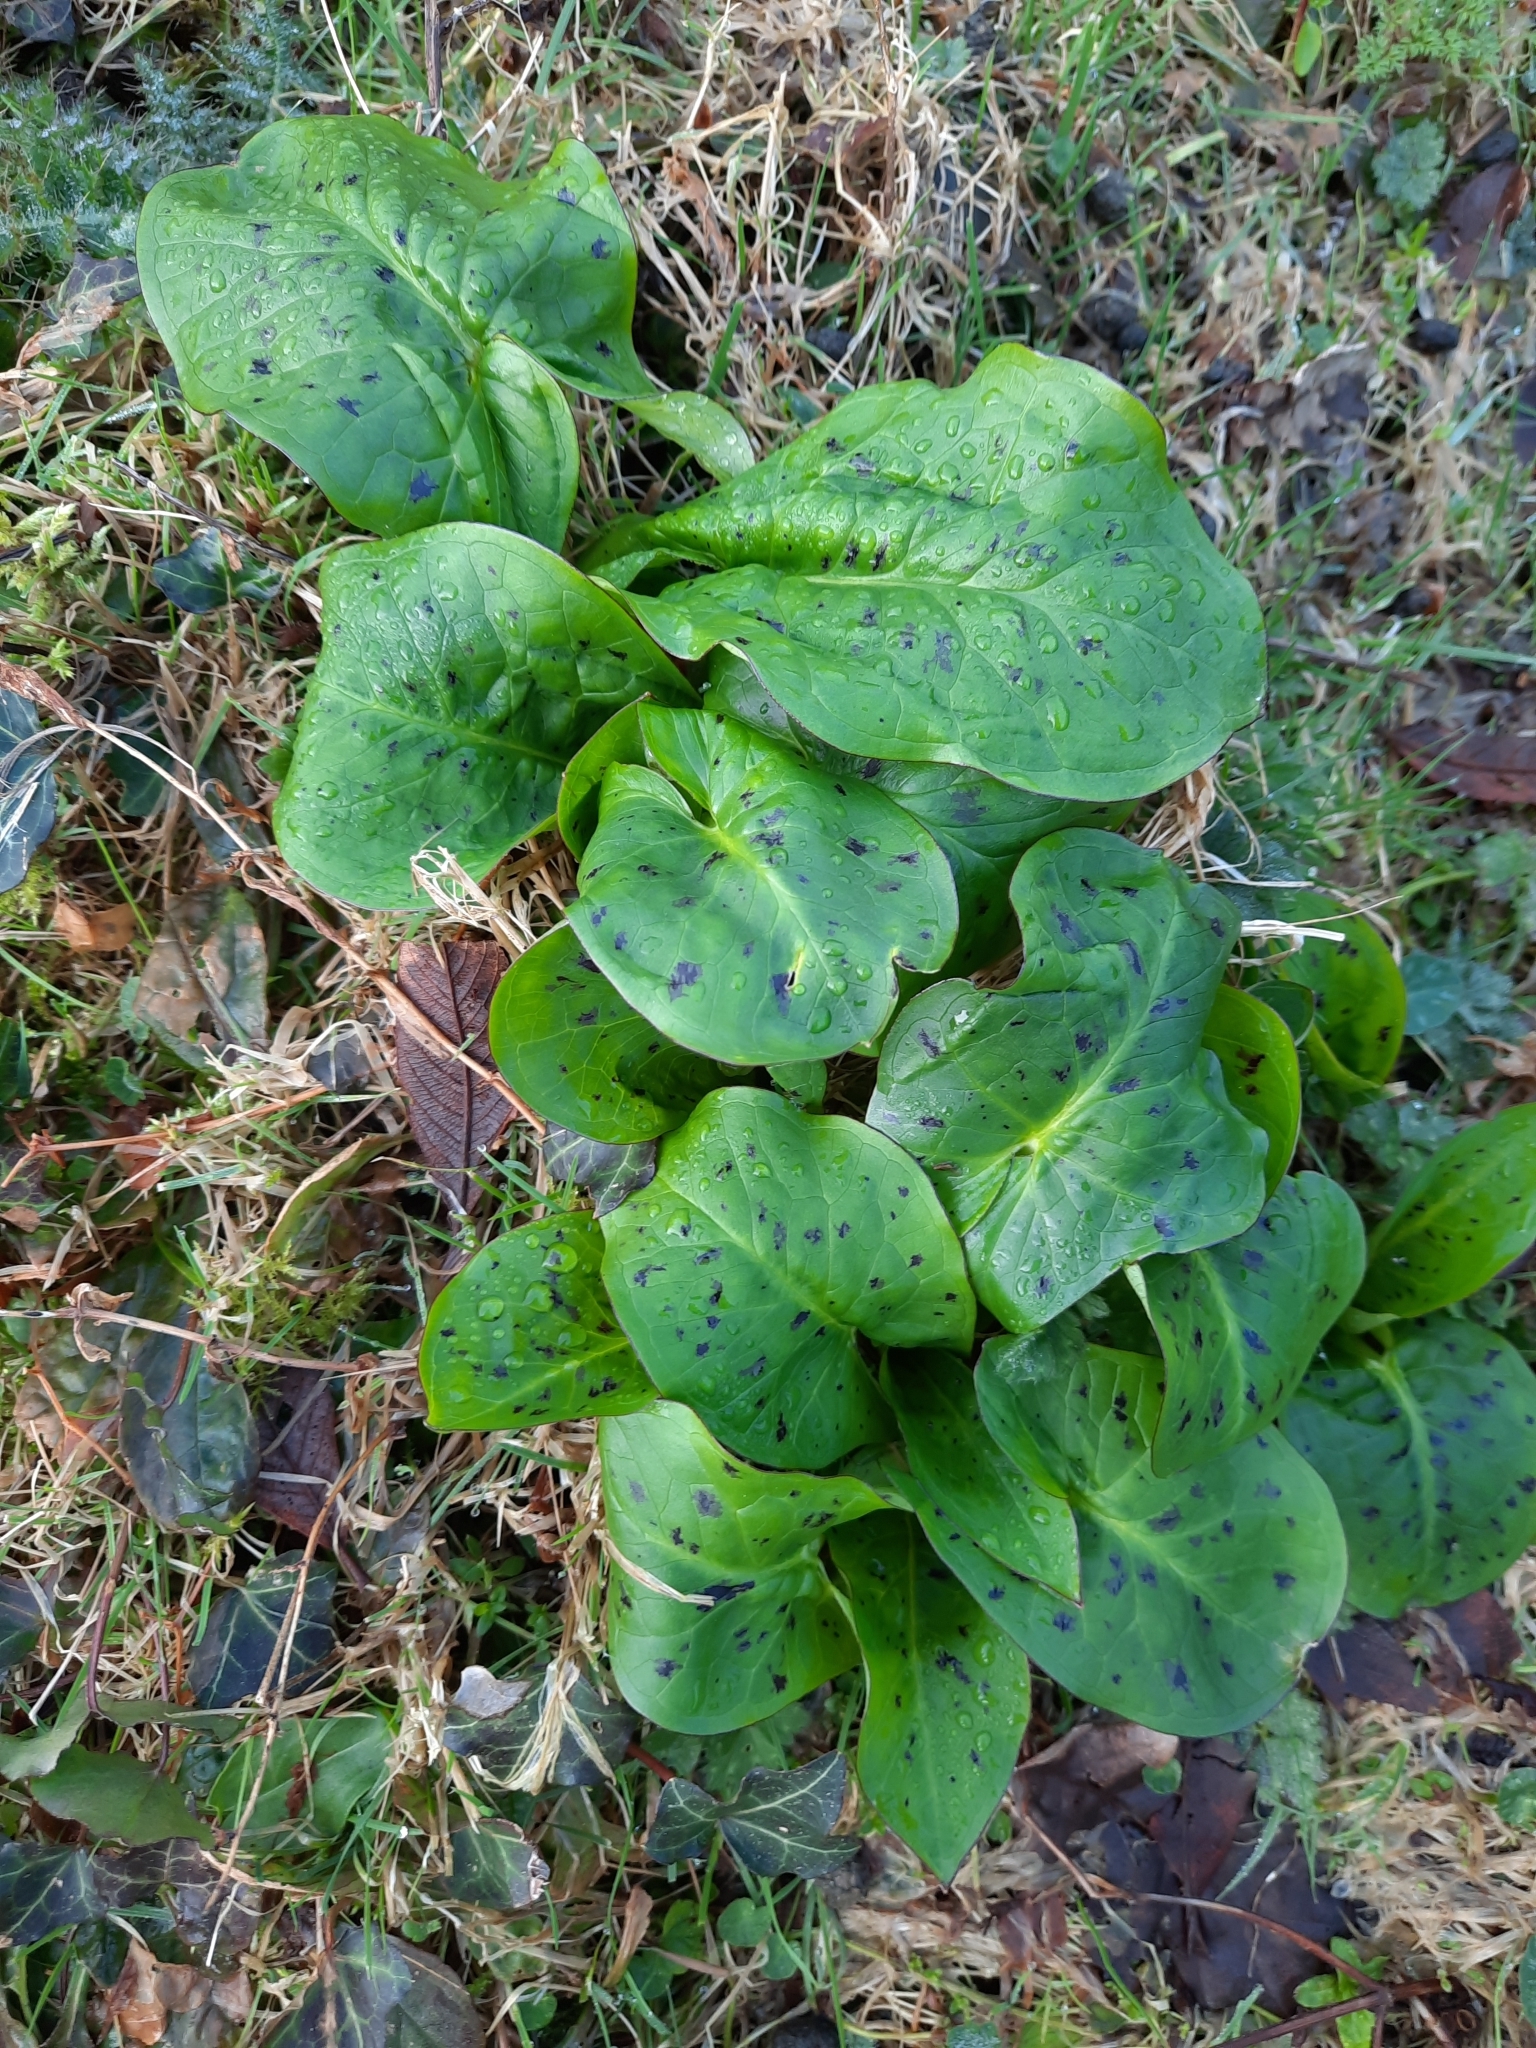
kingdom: Plantae
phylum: Tracheophyta
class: Liliopsida
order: Alismatales
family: Araceae
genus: Arum
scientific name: Arum maculatum
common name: Lords-and-ladies
